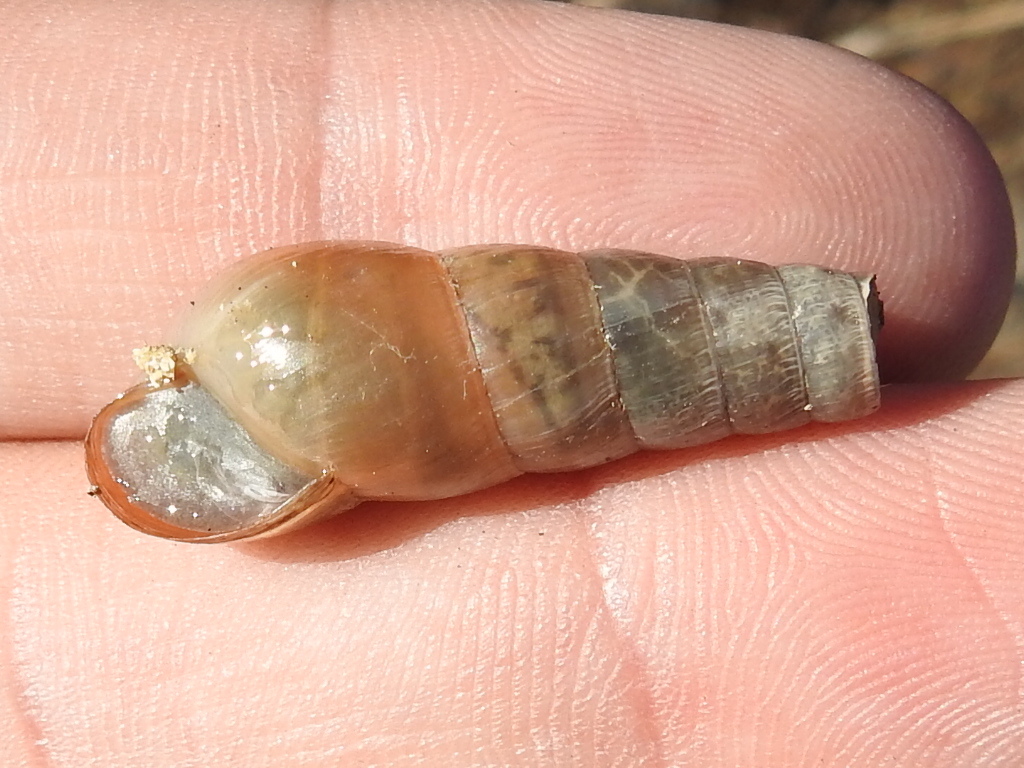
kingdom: Animalia
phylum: Mollusca
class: Gastropoda
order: Stylommatophora
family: Achatinidae
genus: Rumina
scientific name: Rumina decollata
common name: Decollate snail
